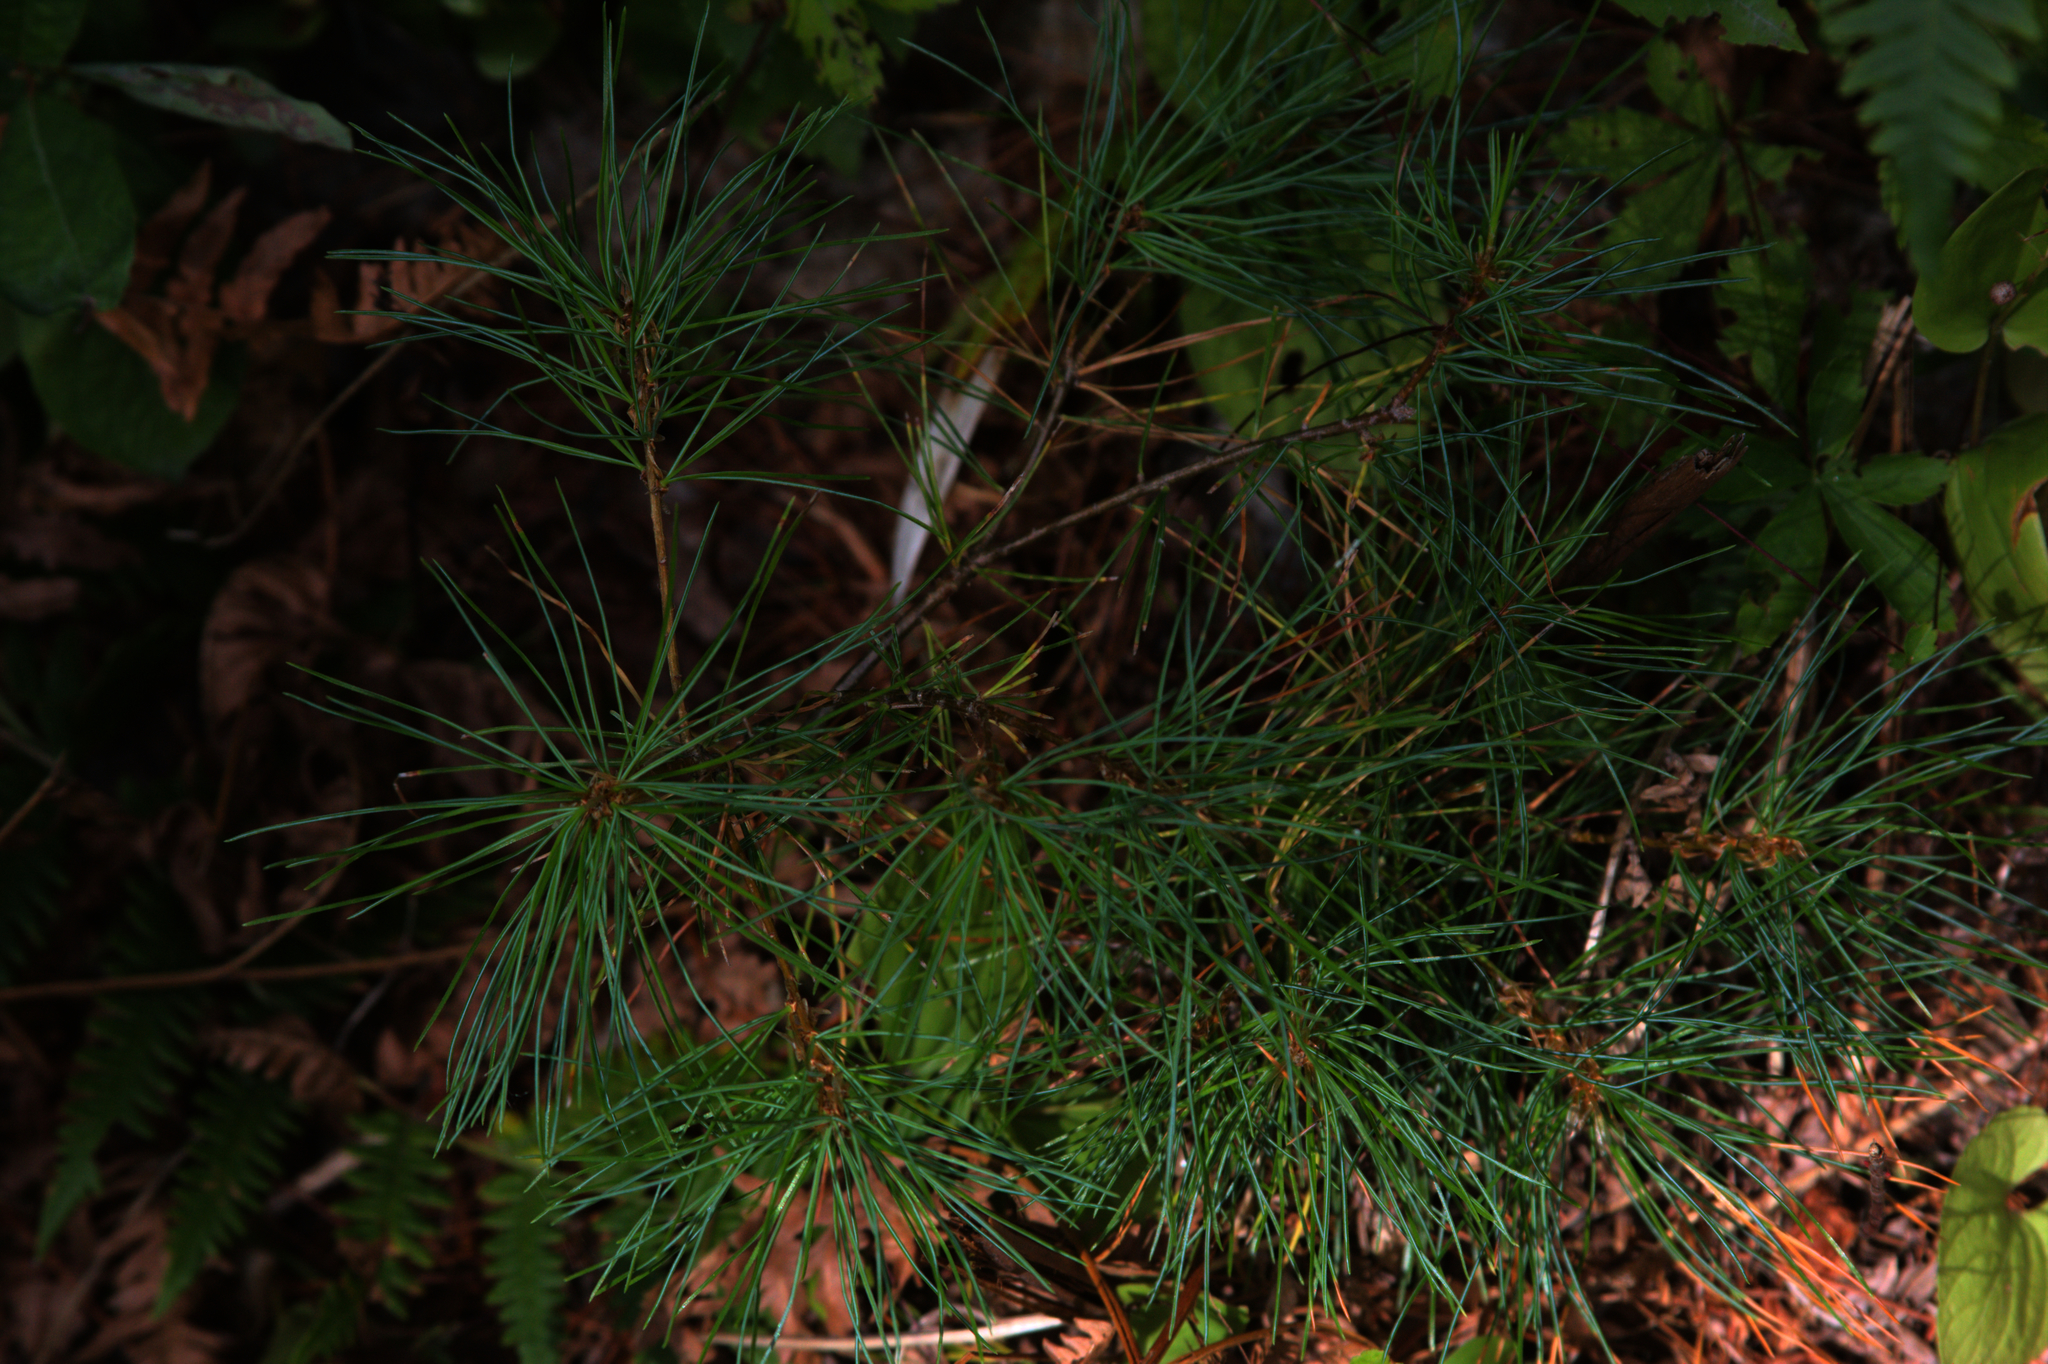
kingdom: Plantae
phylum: Tracheophyta
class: Pinopsida
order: Pinales
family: Pinaceae
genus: Pinus
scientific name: Pinus strobus
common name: Weymouth pine
